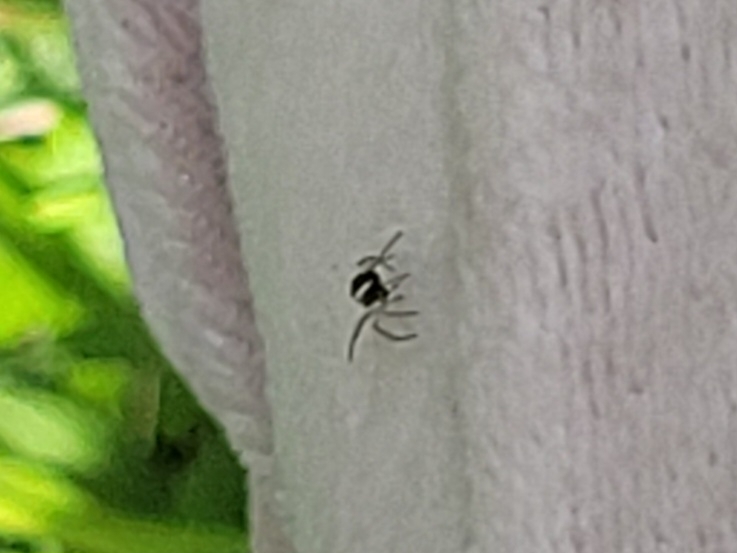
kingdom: Animalia
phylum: Arthropoda
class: Arachnida
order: Araneae
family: Araneidae
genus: Mangora
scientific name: Mangora acalypha
